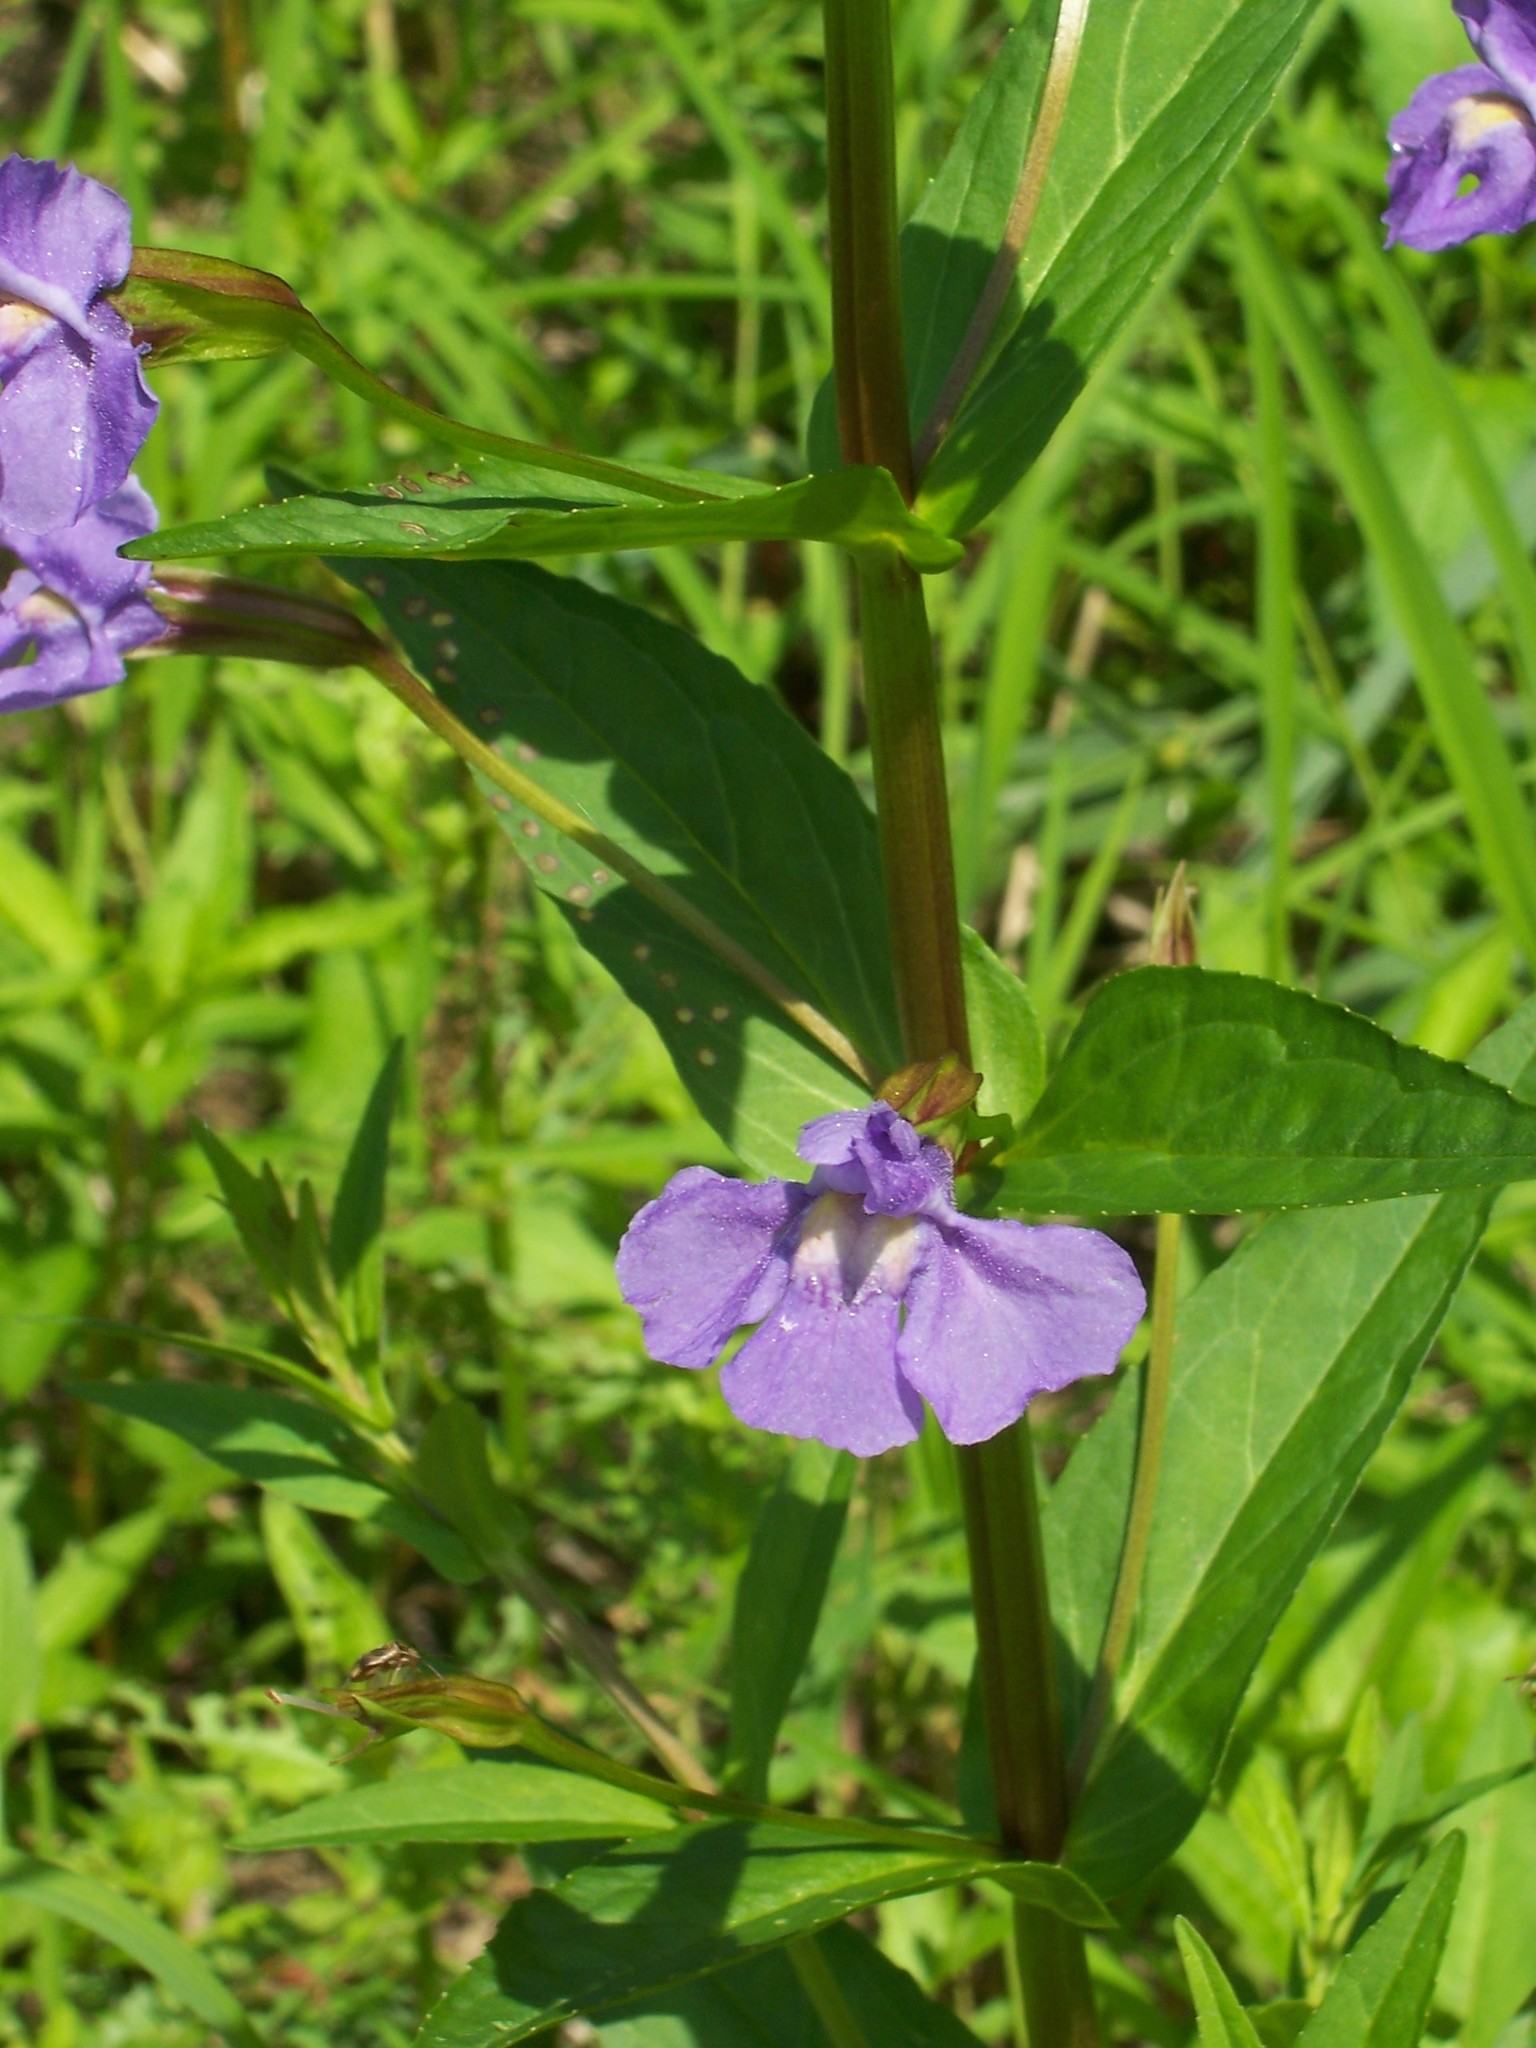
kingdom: Plantae
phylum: Tracheophyta
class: Magnoliopsida
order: Lamiales
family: Phrymaceae
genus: Mimulus
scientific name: Mimulus ringens
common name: Allegheny monkeyflower
